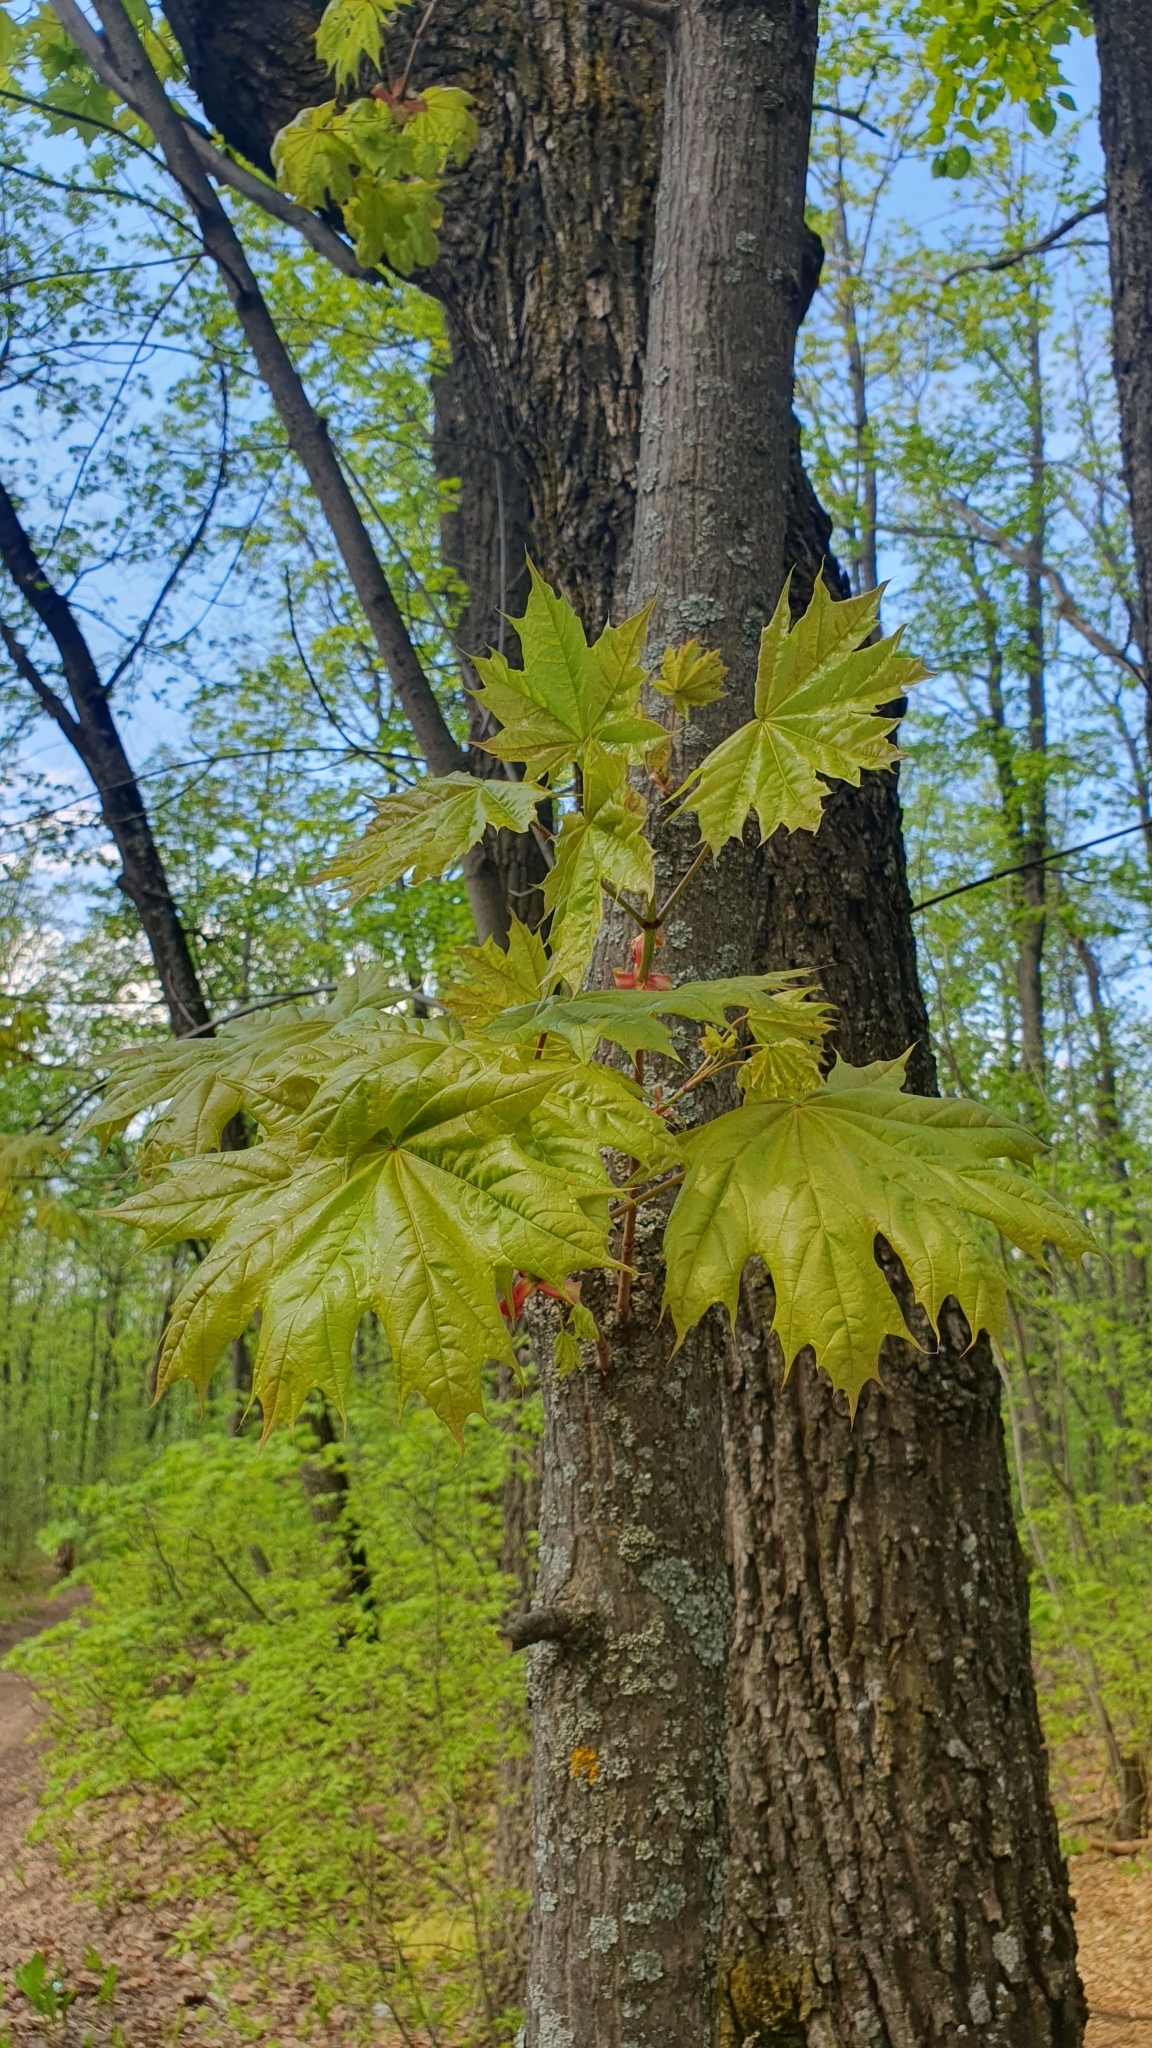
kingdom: Plantae
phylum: Tracheophyta
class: Magnoliopsida
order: Sapindales
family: Sapindaceae
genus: Acer
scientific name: Acer platanoides
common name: Norway maple
